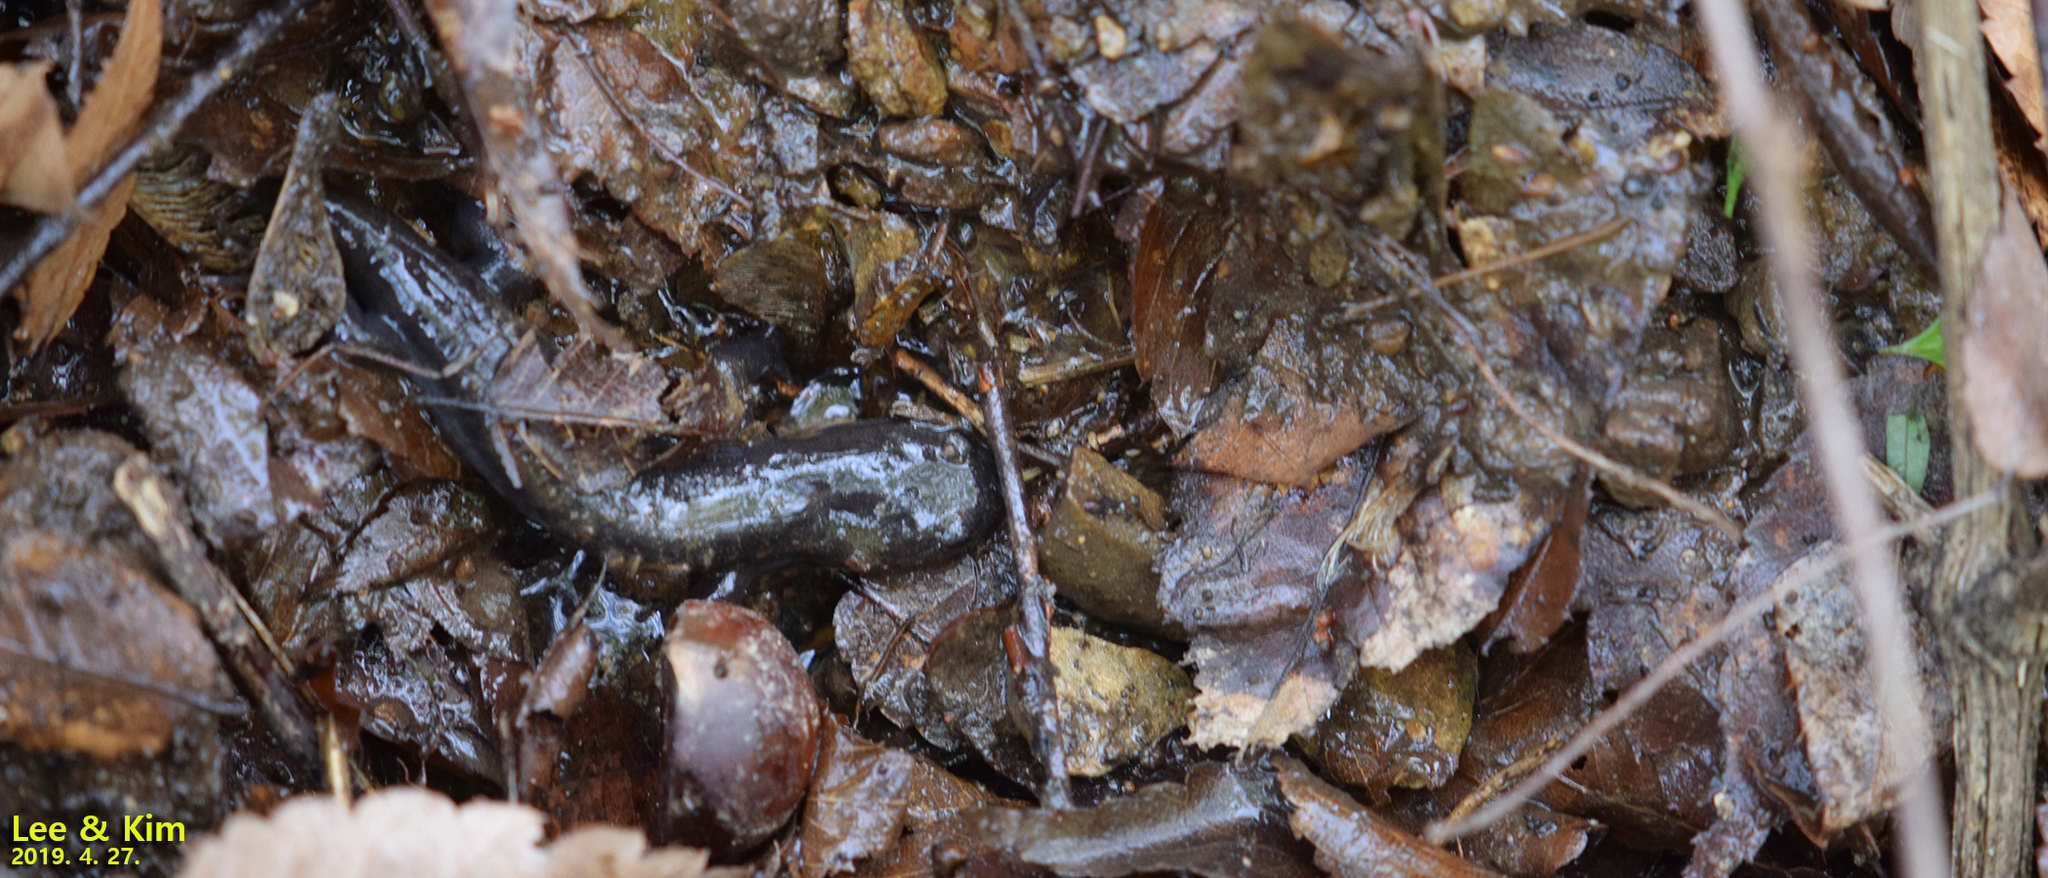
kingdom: Animalia
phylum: Chordata
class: Amphibia
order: Caudata
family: Hynobiidae
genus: Hynobius
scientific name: Hynobius leechii
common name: Gensan salamander
